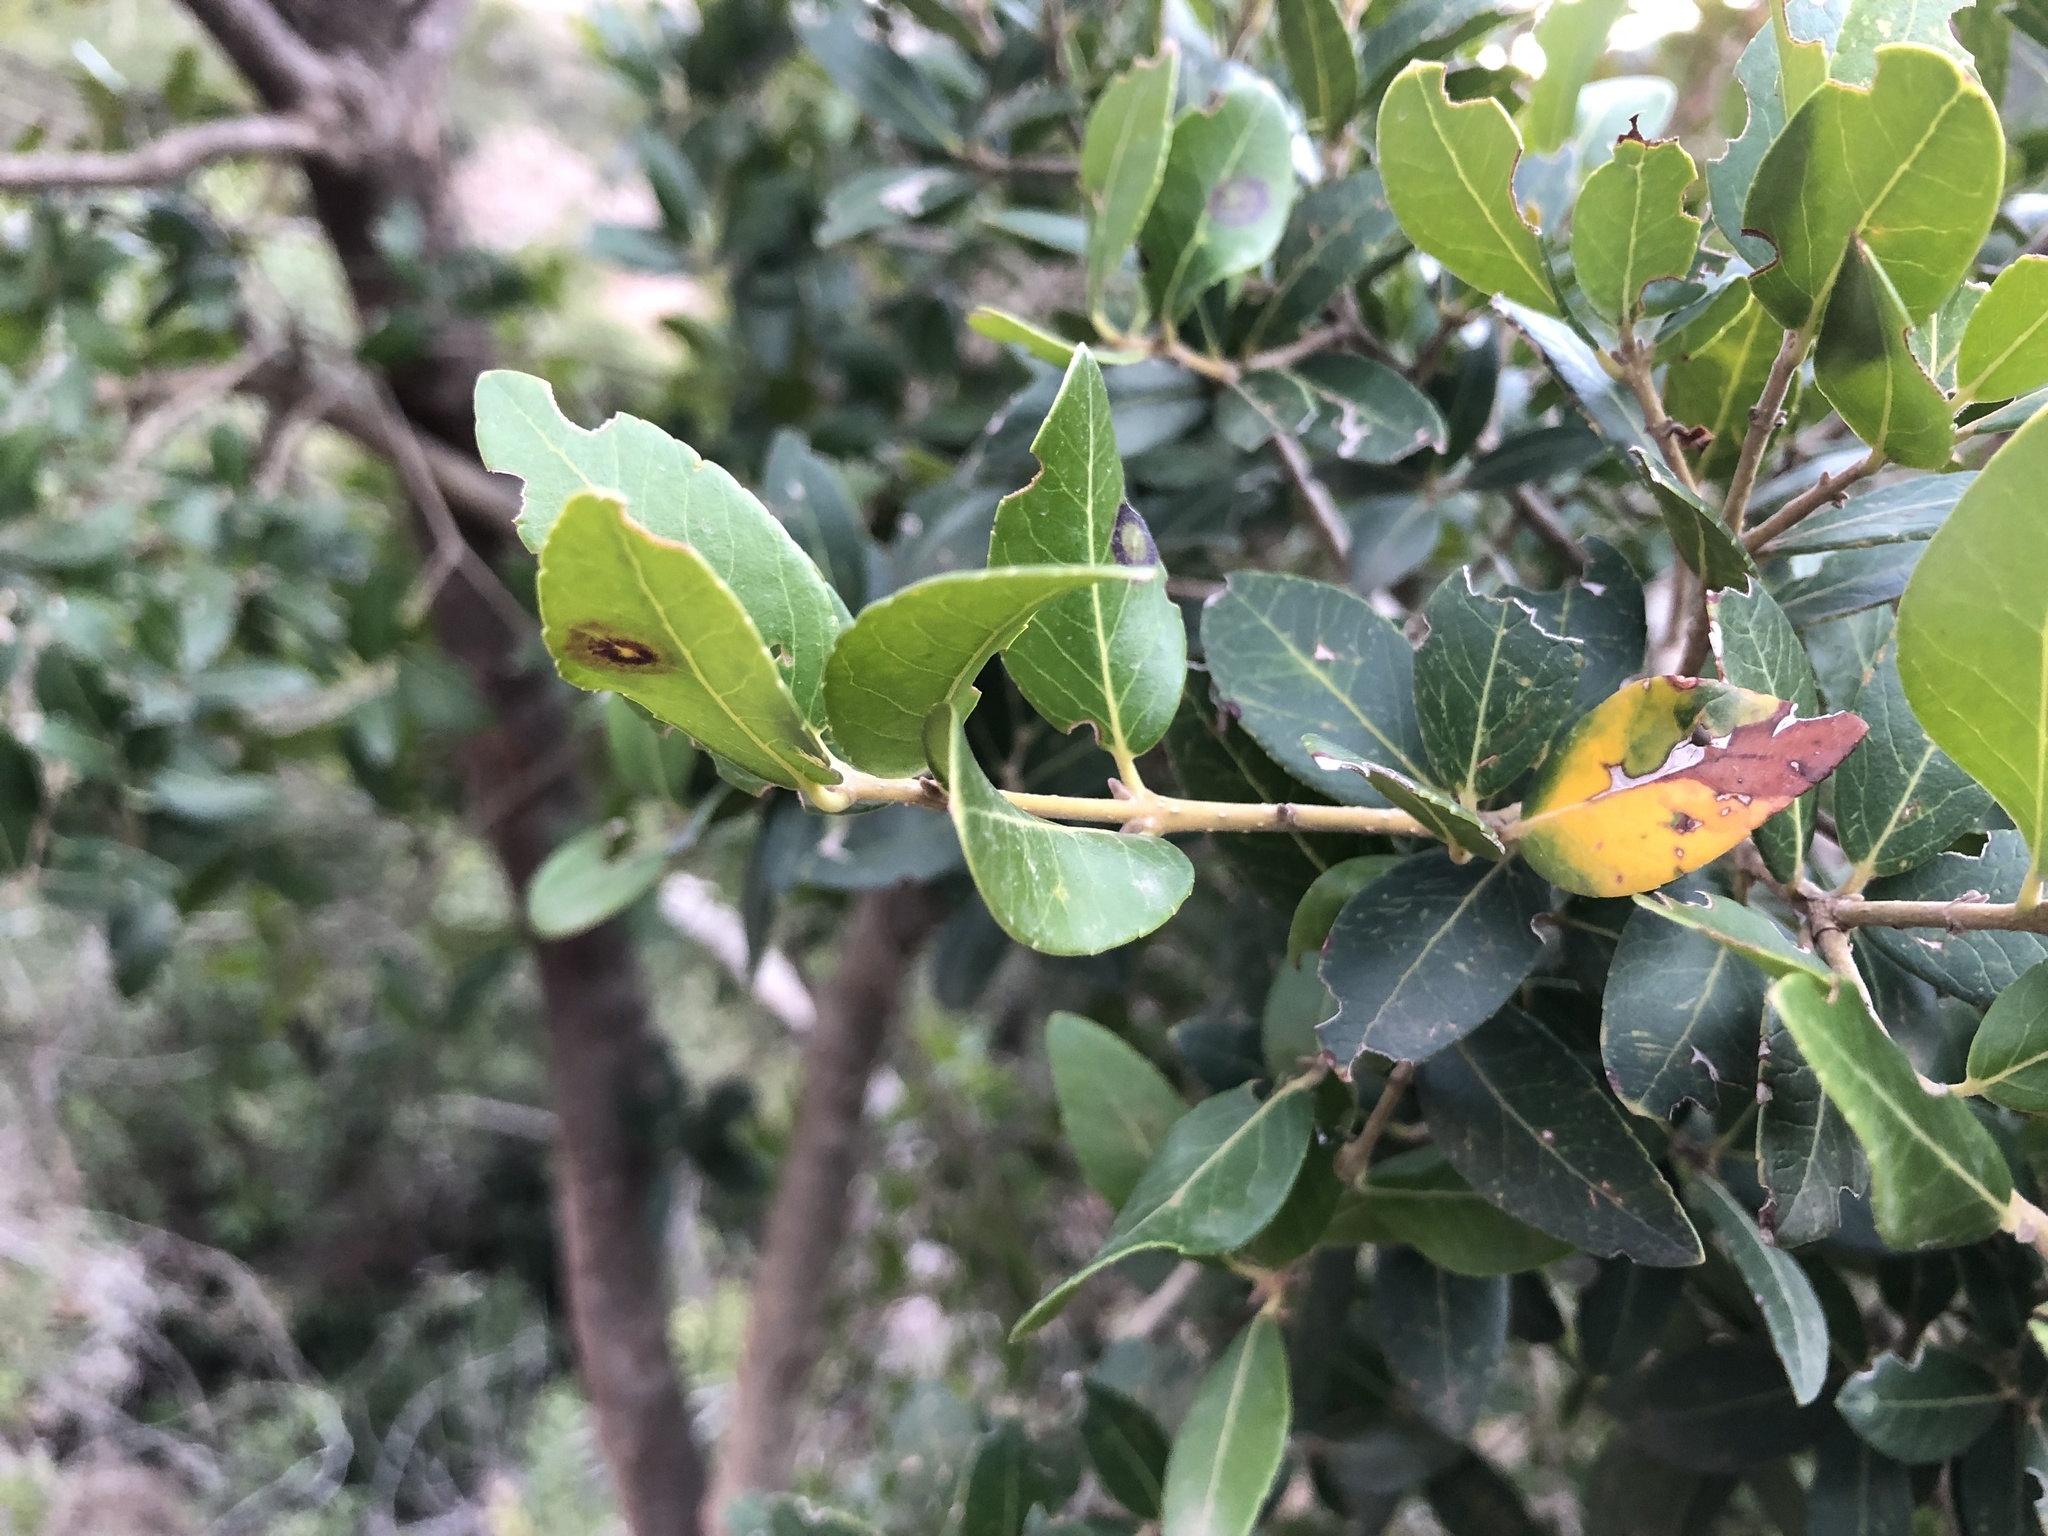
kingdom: Plantae
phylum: Tracheophyta
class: Magnoliopsida
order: Lamiales
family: Oleaceae
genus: Phillyrea
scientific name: Phillyrea latifolia
